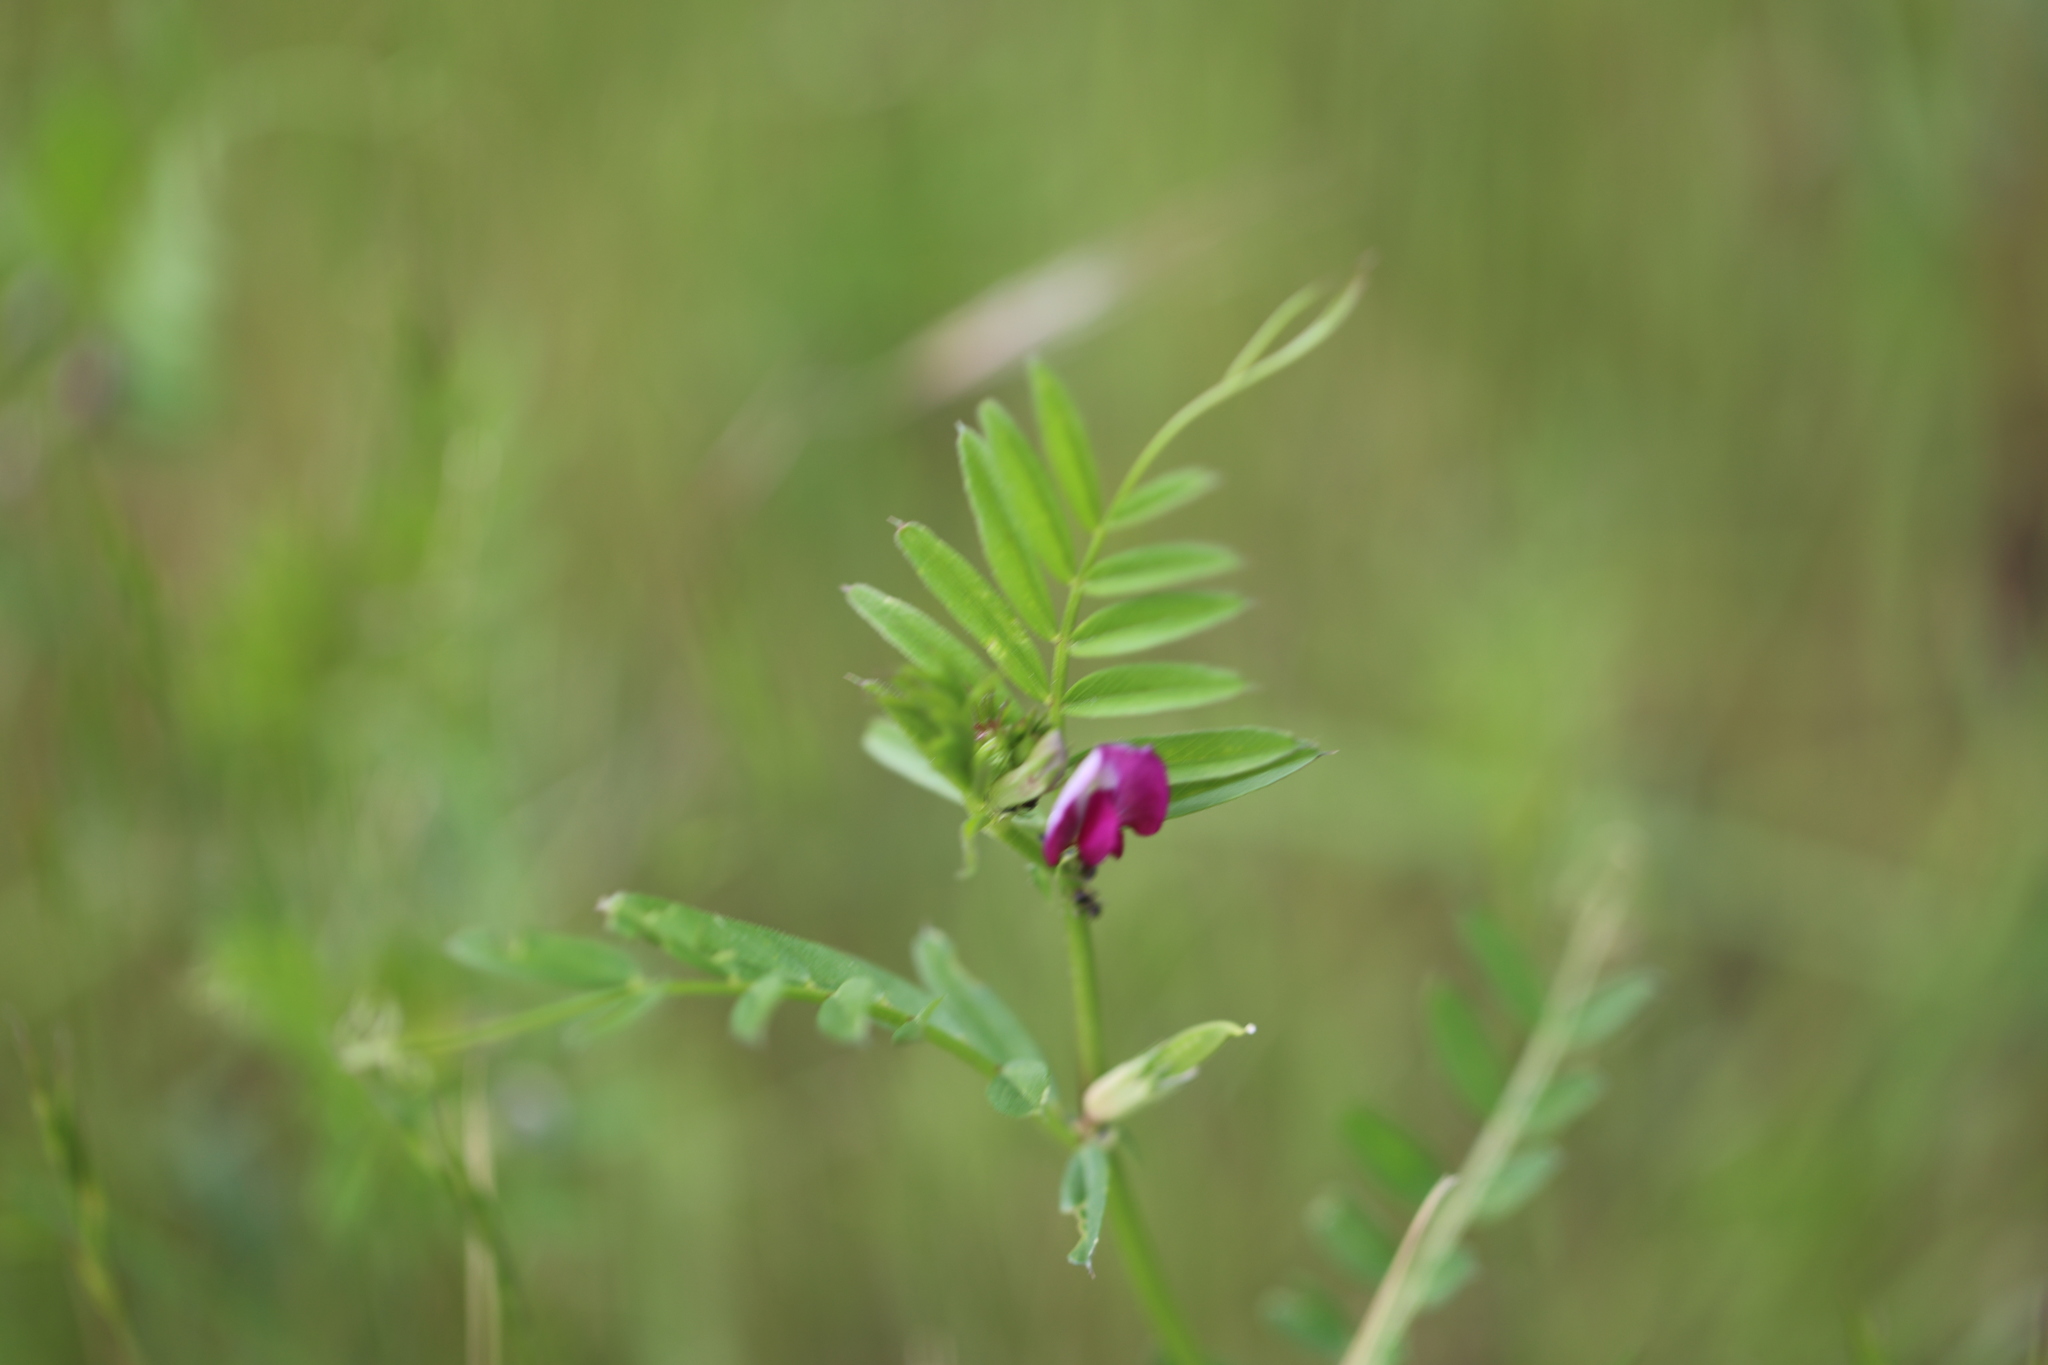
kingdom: Plantae
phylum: Tracheophyta
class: Magnoliopsida
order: Fabales
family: Fabaceae
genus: Vicia
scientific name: Vicia sativa
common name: Garden vetch
